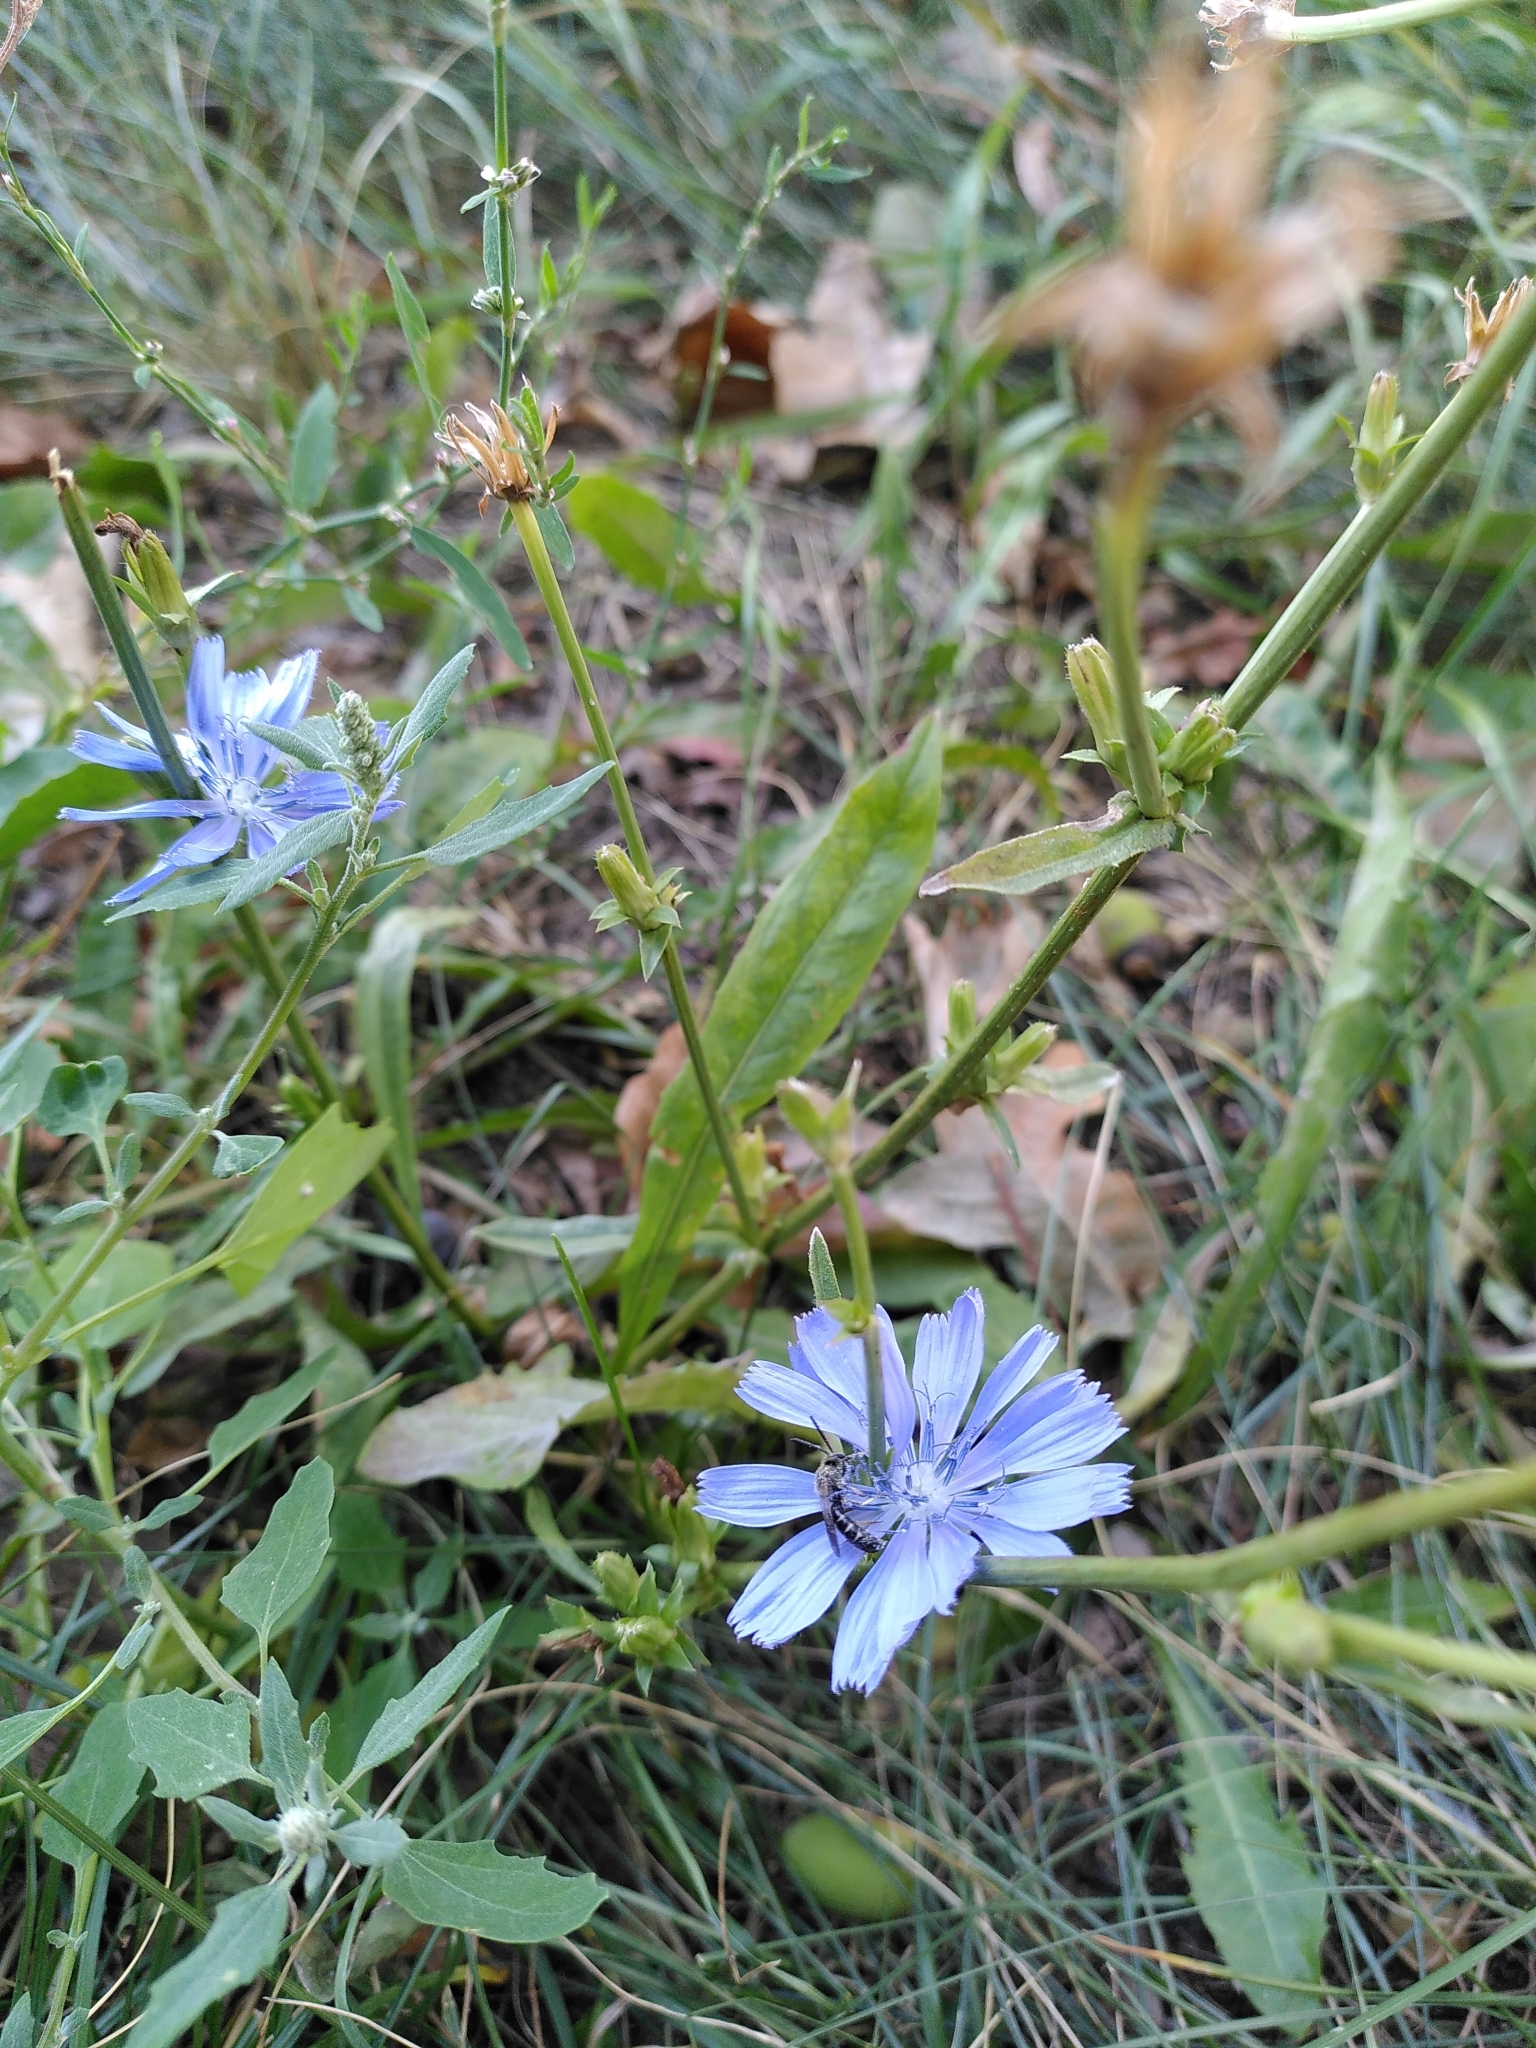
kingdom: Plantae
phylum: Tracheophyta
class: Magnoliopsida
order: Asterales
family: Asteraceae
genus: Cichorium
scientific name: Cichorium intybus
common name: Chicory
